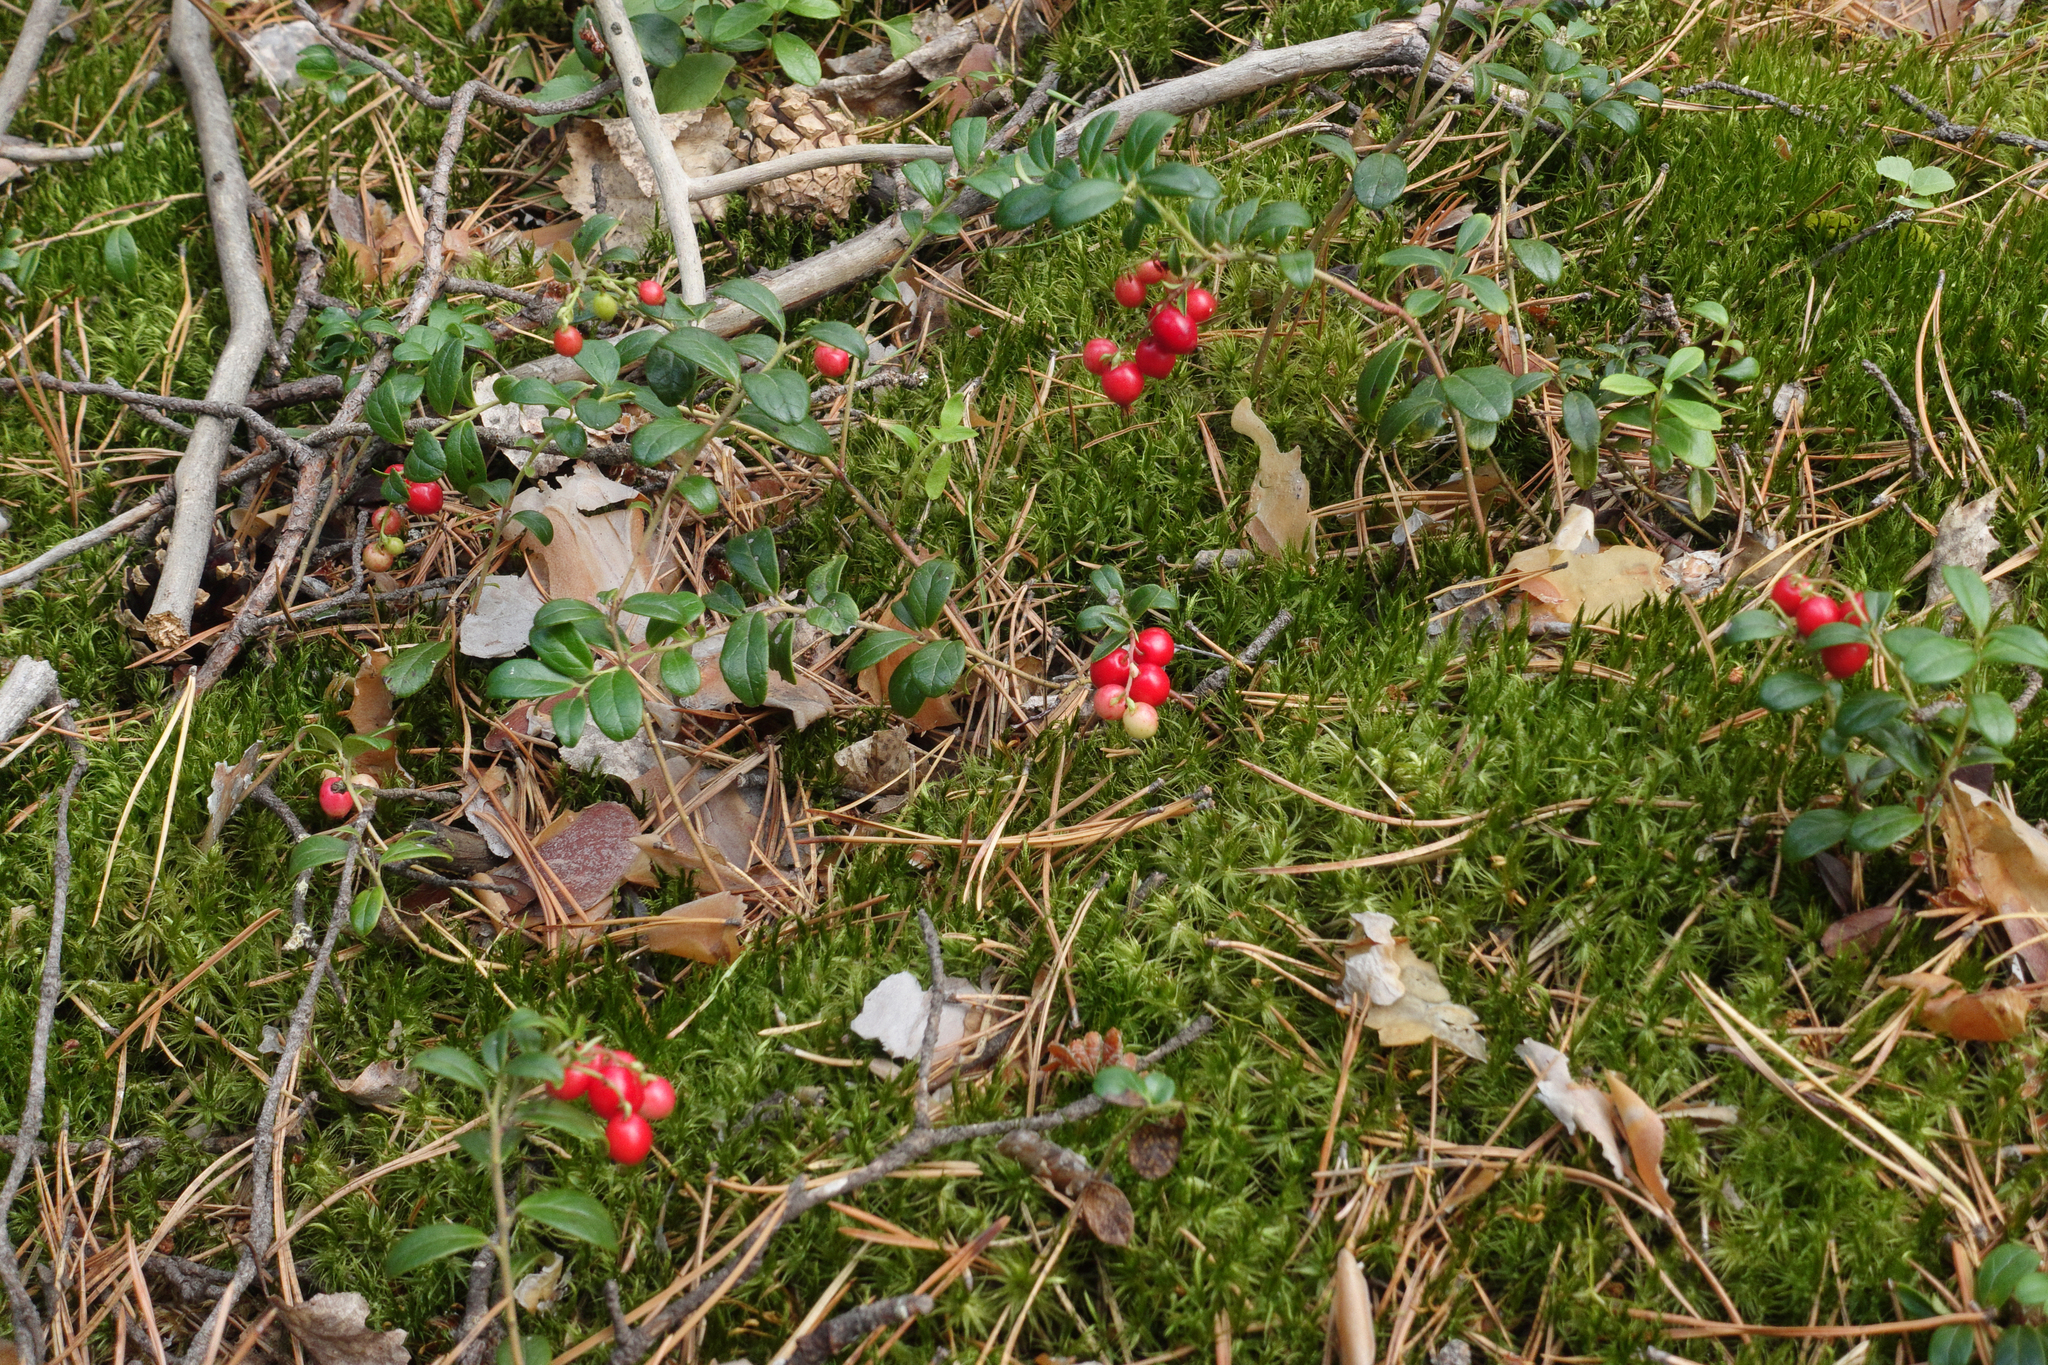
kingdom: Plantae
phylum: Tracheophyta
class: Magnoliopsida
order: Ericales
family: Ericaceae
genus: Vaccinium
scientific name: Vaccinium vitis-idaea
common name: Cowberry
